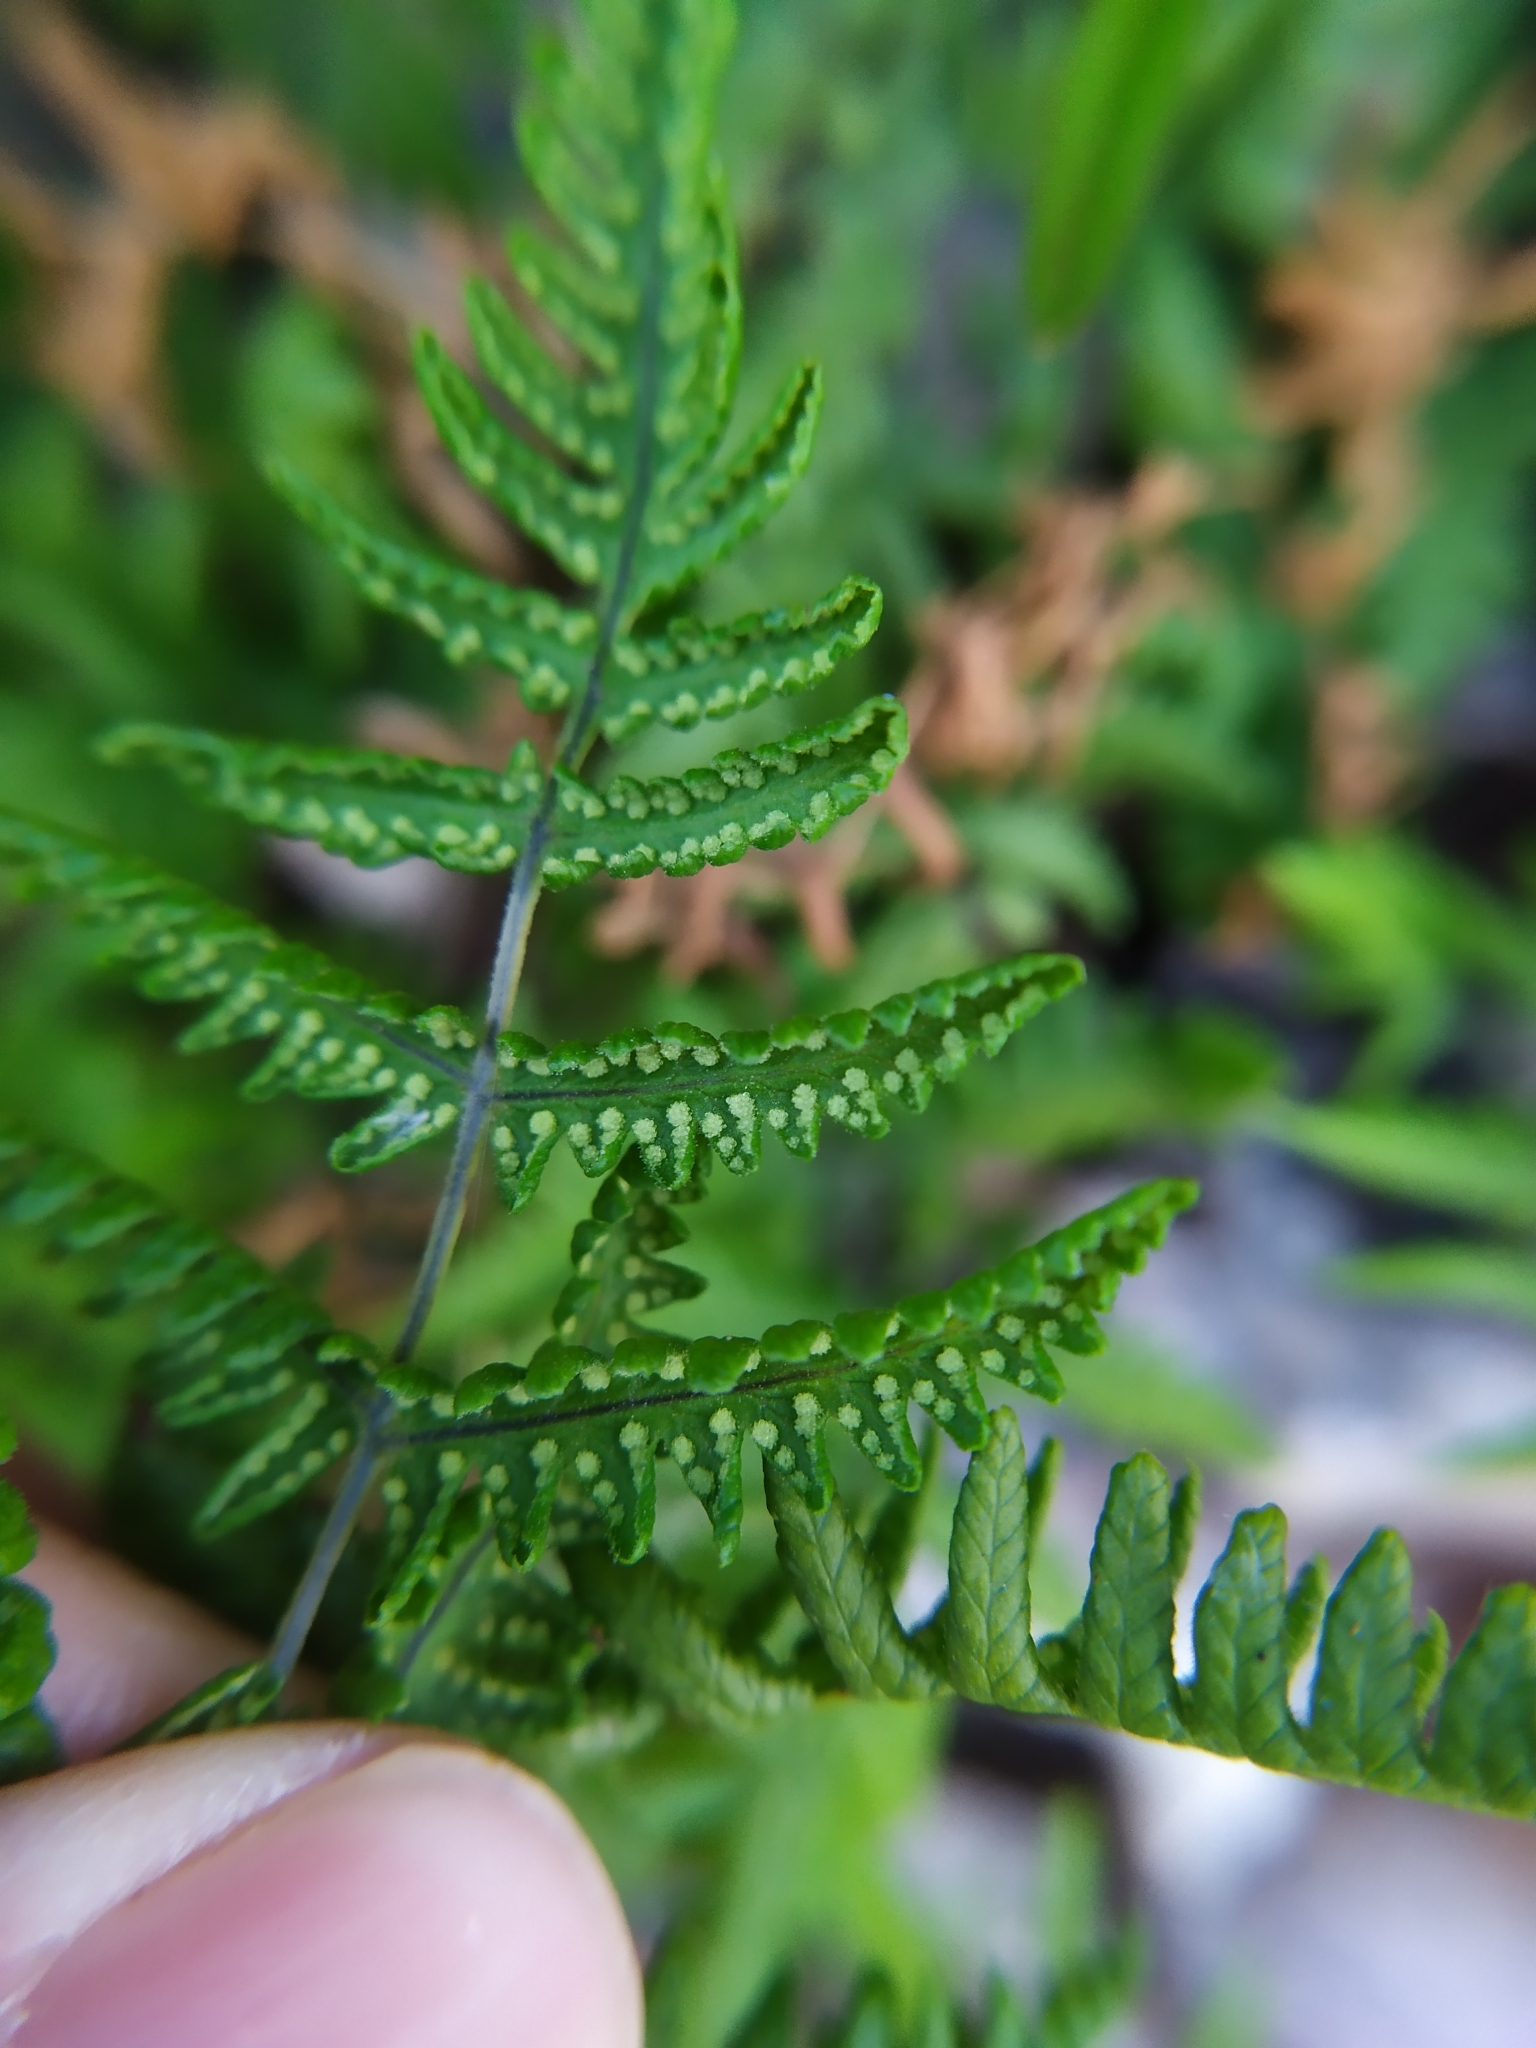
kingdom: Plantae
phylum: Tracheophyta
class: Polypodiopsida
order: Polypodiales
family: Cystopteridaceae
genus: Gymnocarpium
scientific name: Gymnocarpium robertianum
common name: Limestone fern
